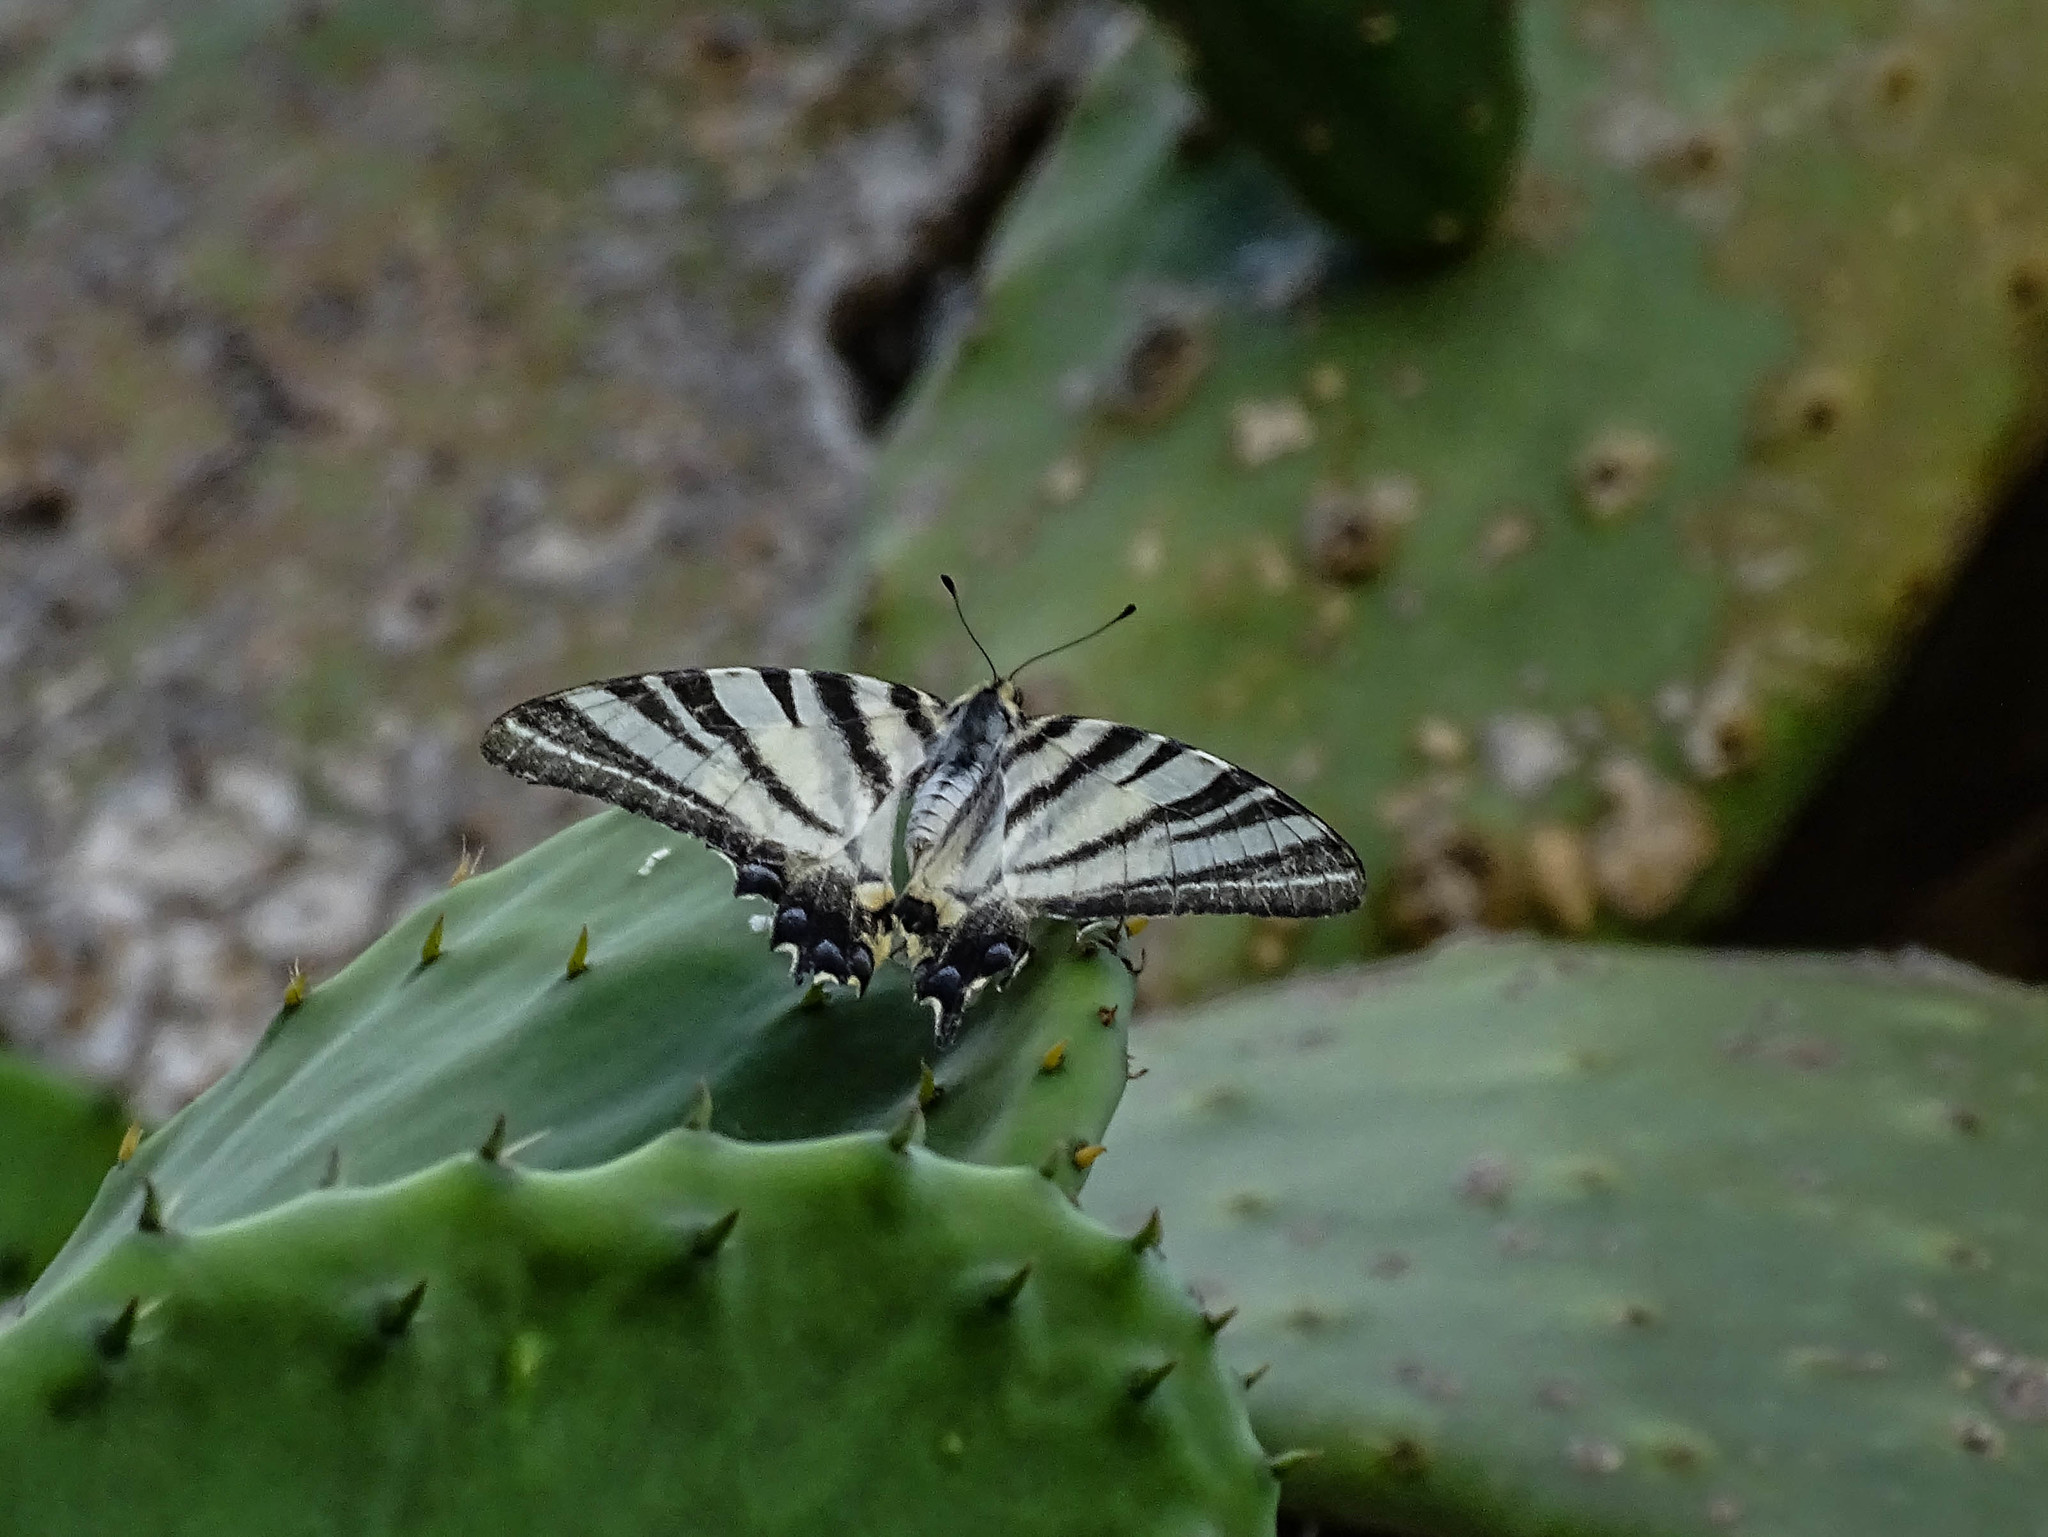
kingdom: Animalia
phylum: Arthropoda
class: Insecta
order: Lepidoptera
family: Papilionidae
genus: Iphiclides
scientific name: Iphiclides podalirius
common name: Scarce swallowtail
